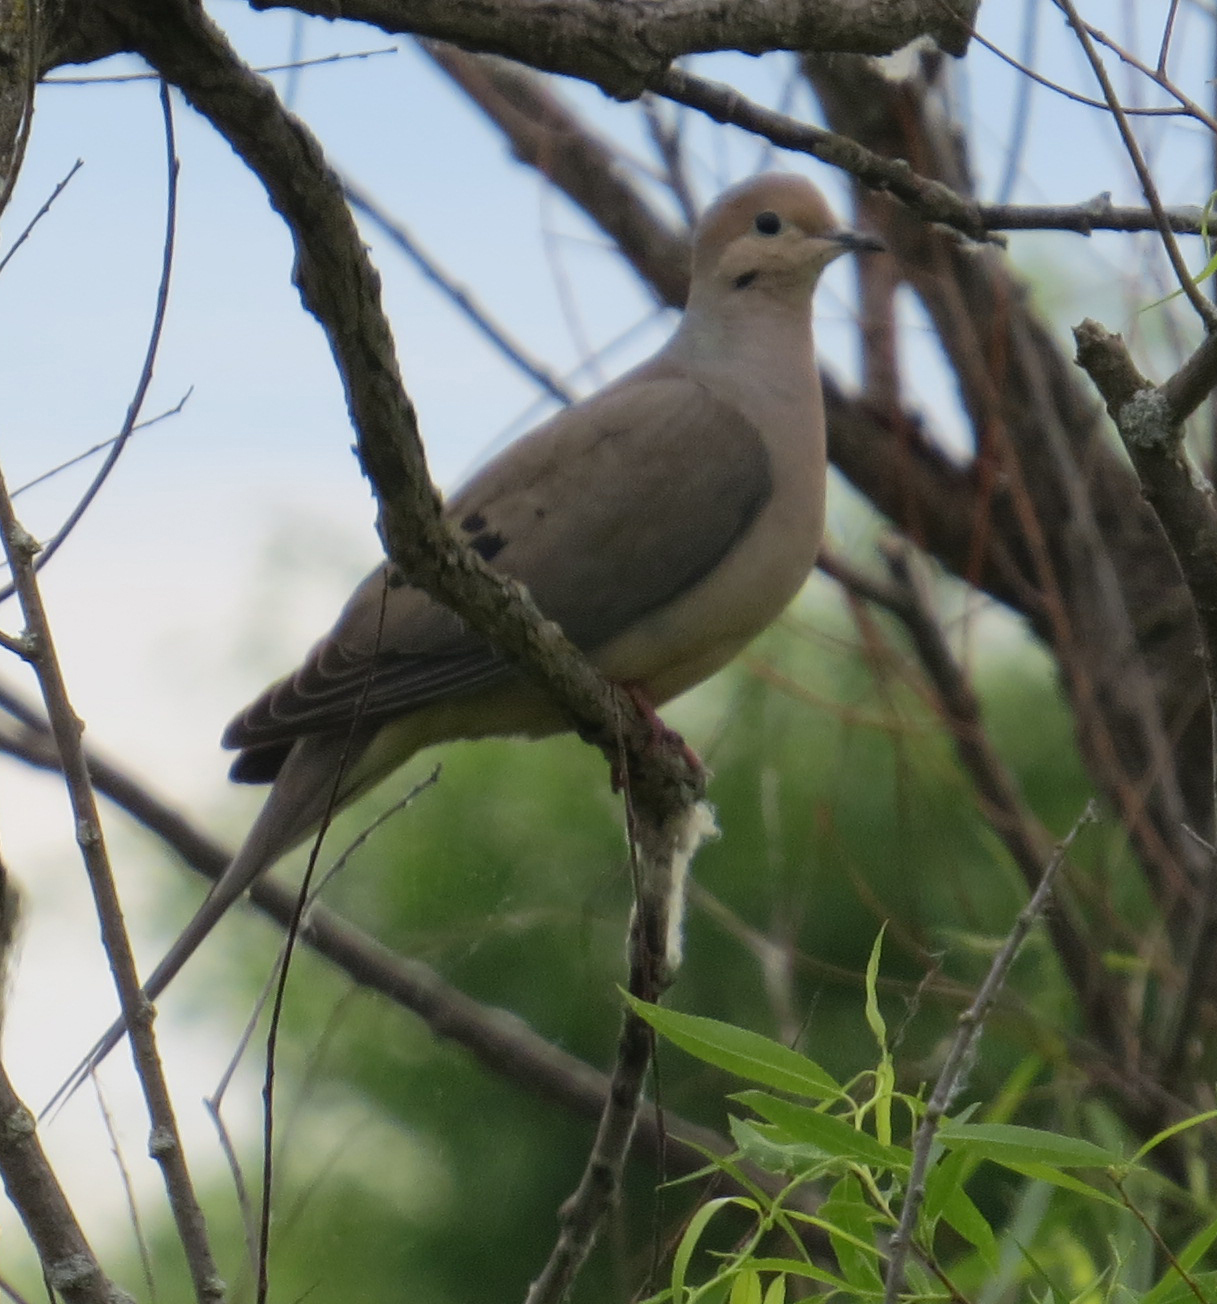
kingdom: Animalia
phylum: Chordata
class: Aves
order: Columbiformes
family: Columbidae
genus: Zenaida
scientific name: Zenaida macroura
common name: Mourning dove
